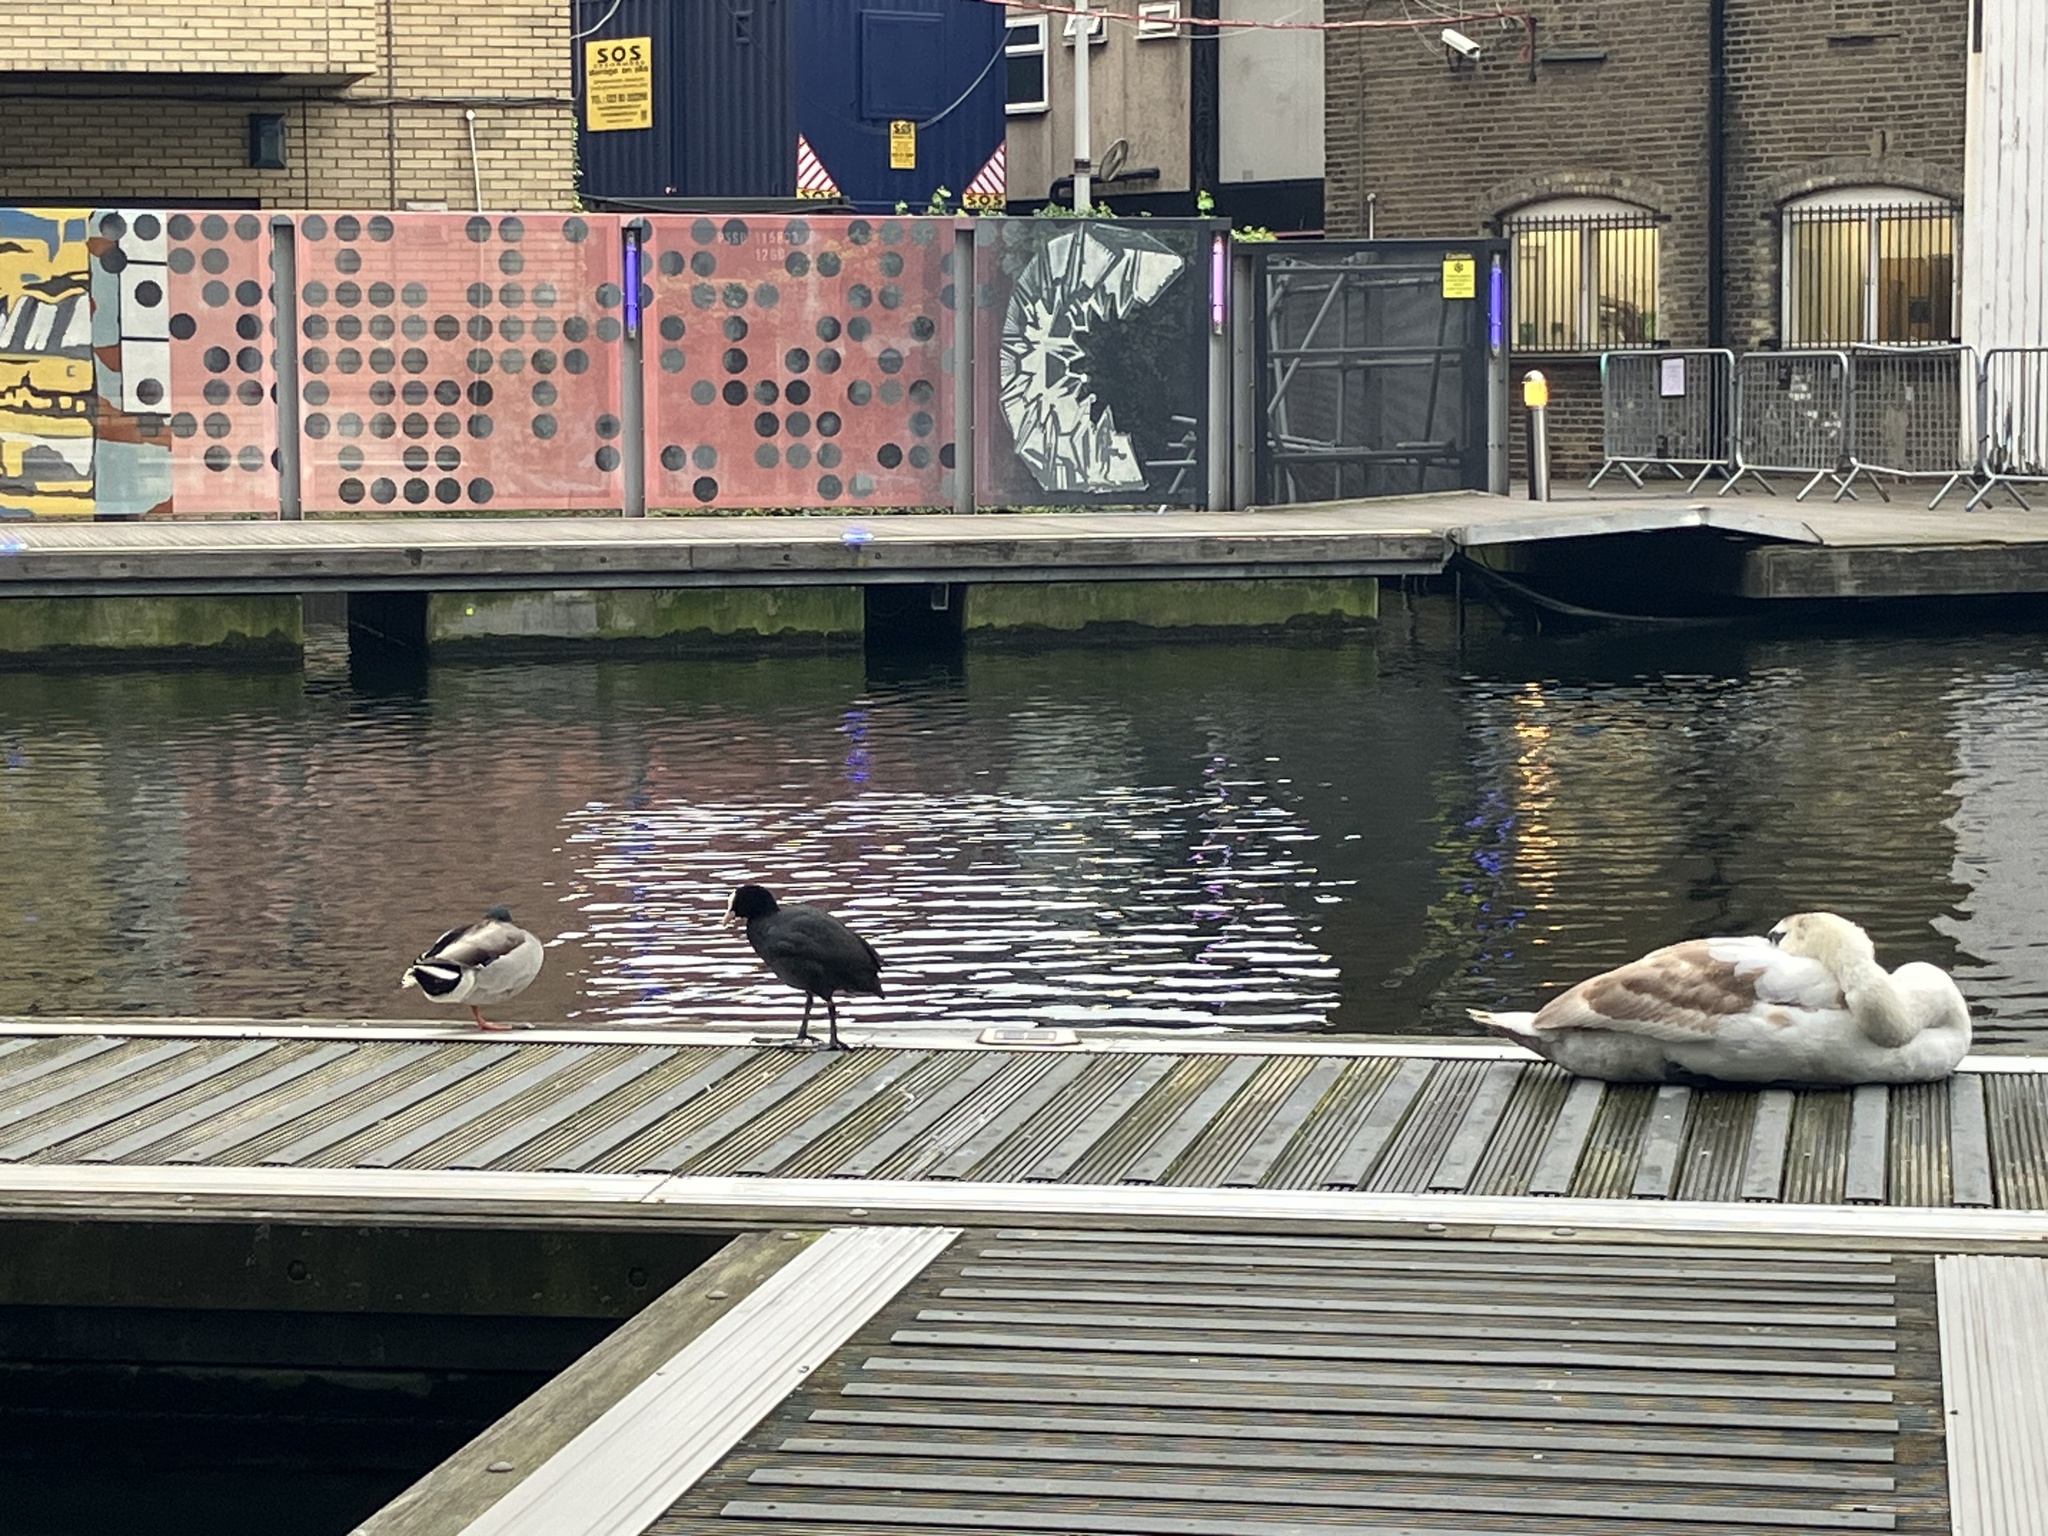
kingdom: Animalia
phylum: Chordata
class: Aves
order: Anseriformes
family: Anatidae
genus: Cygnus
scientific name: Cygnus olor
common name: Mute swan
